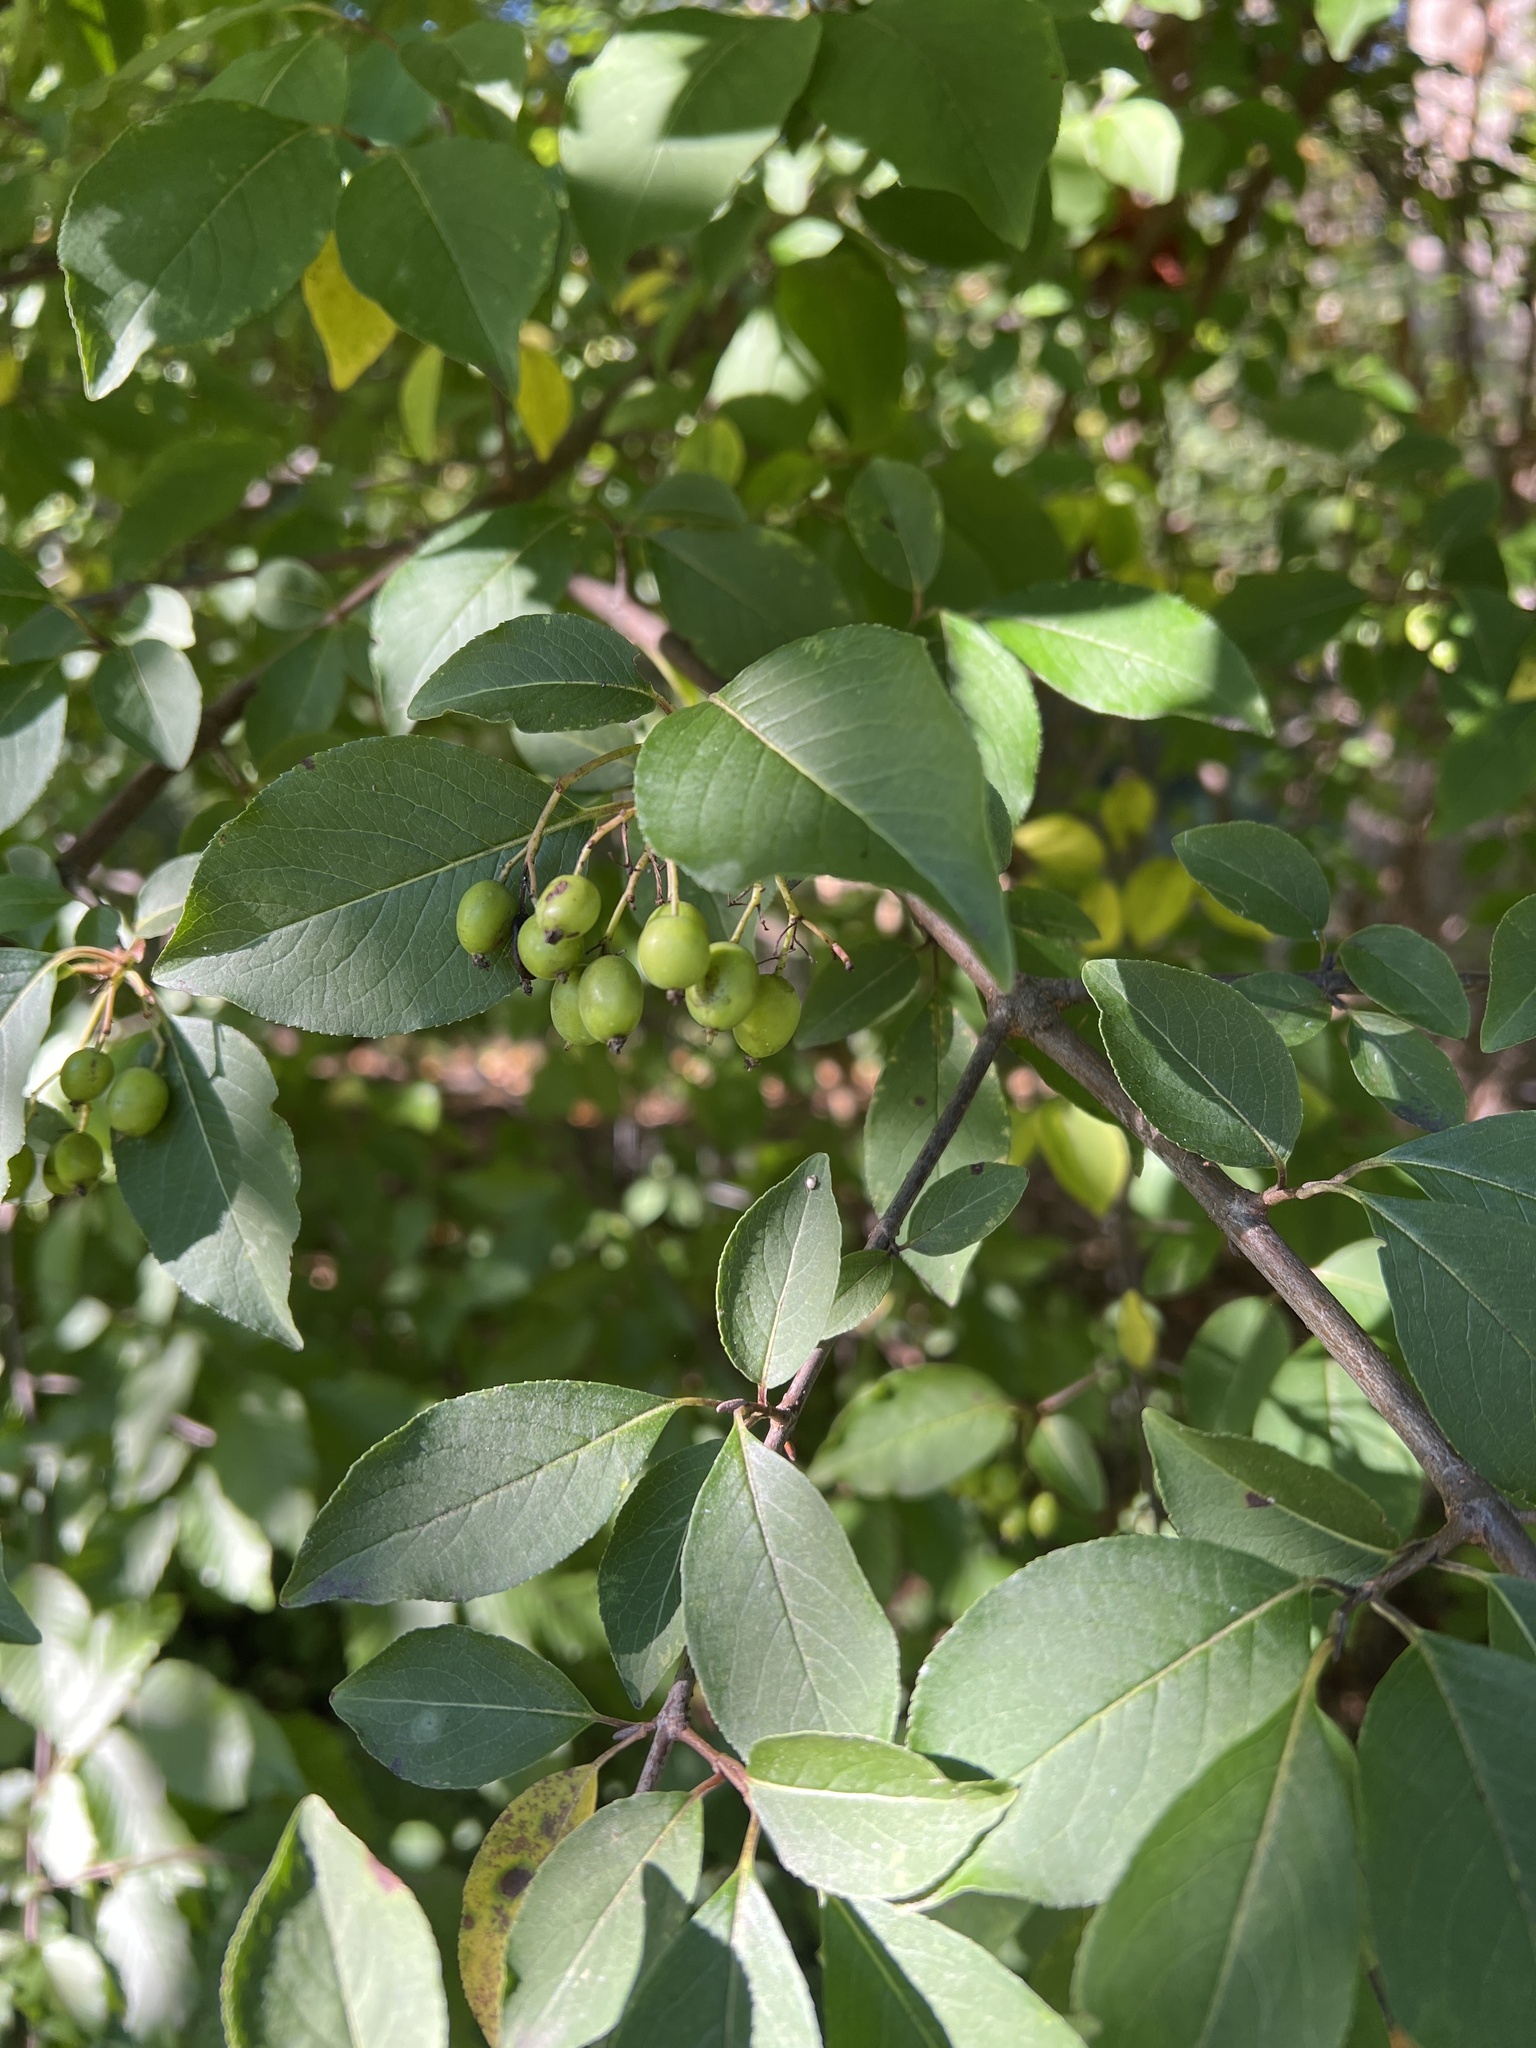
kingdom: Plantae
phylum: Tracheophyta
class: Magnoliopsida
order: Dipsacales
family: Viburnaceae
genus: Viburnum
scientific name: Viburnum prunifolium
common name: Black haw
